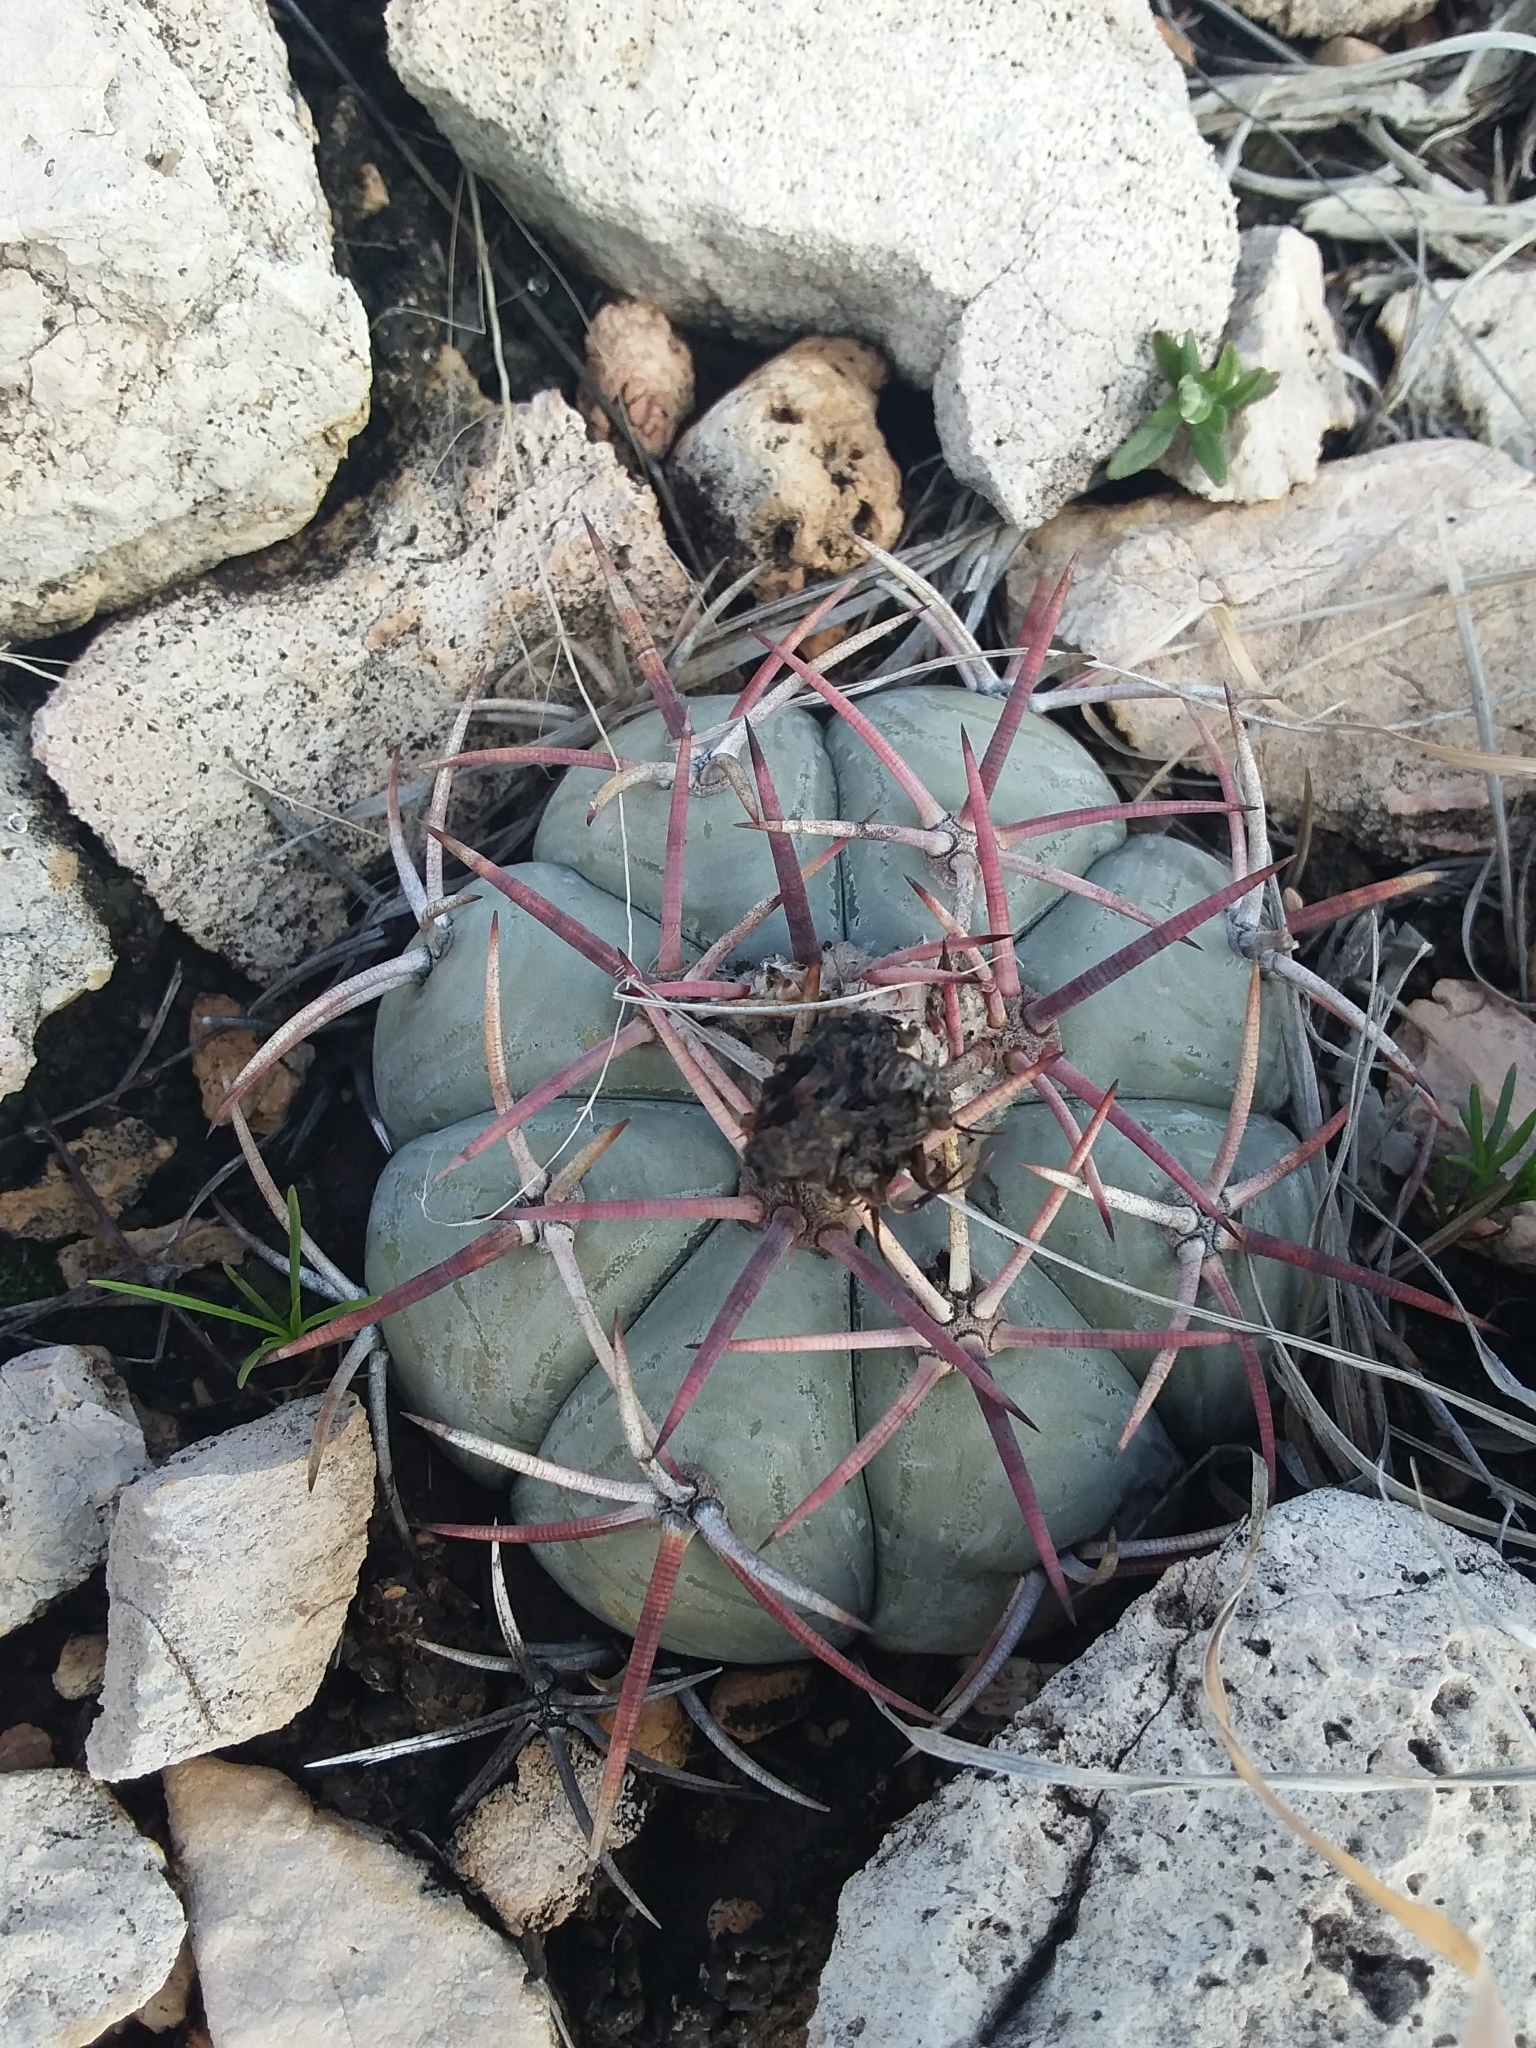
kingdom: Plantae
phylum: Tracheophyta
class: Magnoliopsida
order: Caryophyllales
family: Cactaceae
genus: Echinocactus
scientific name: Echinocactus horizonthalonius
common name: Devilshead
